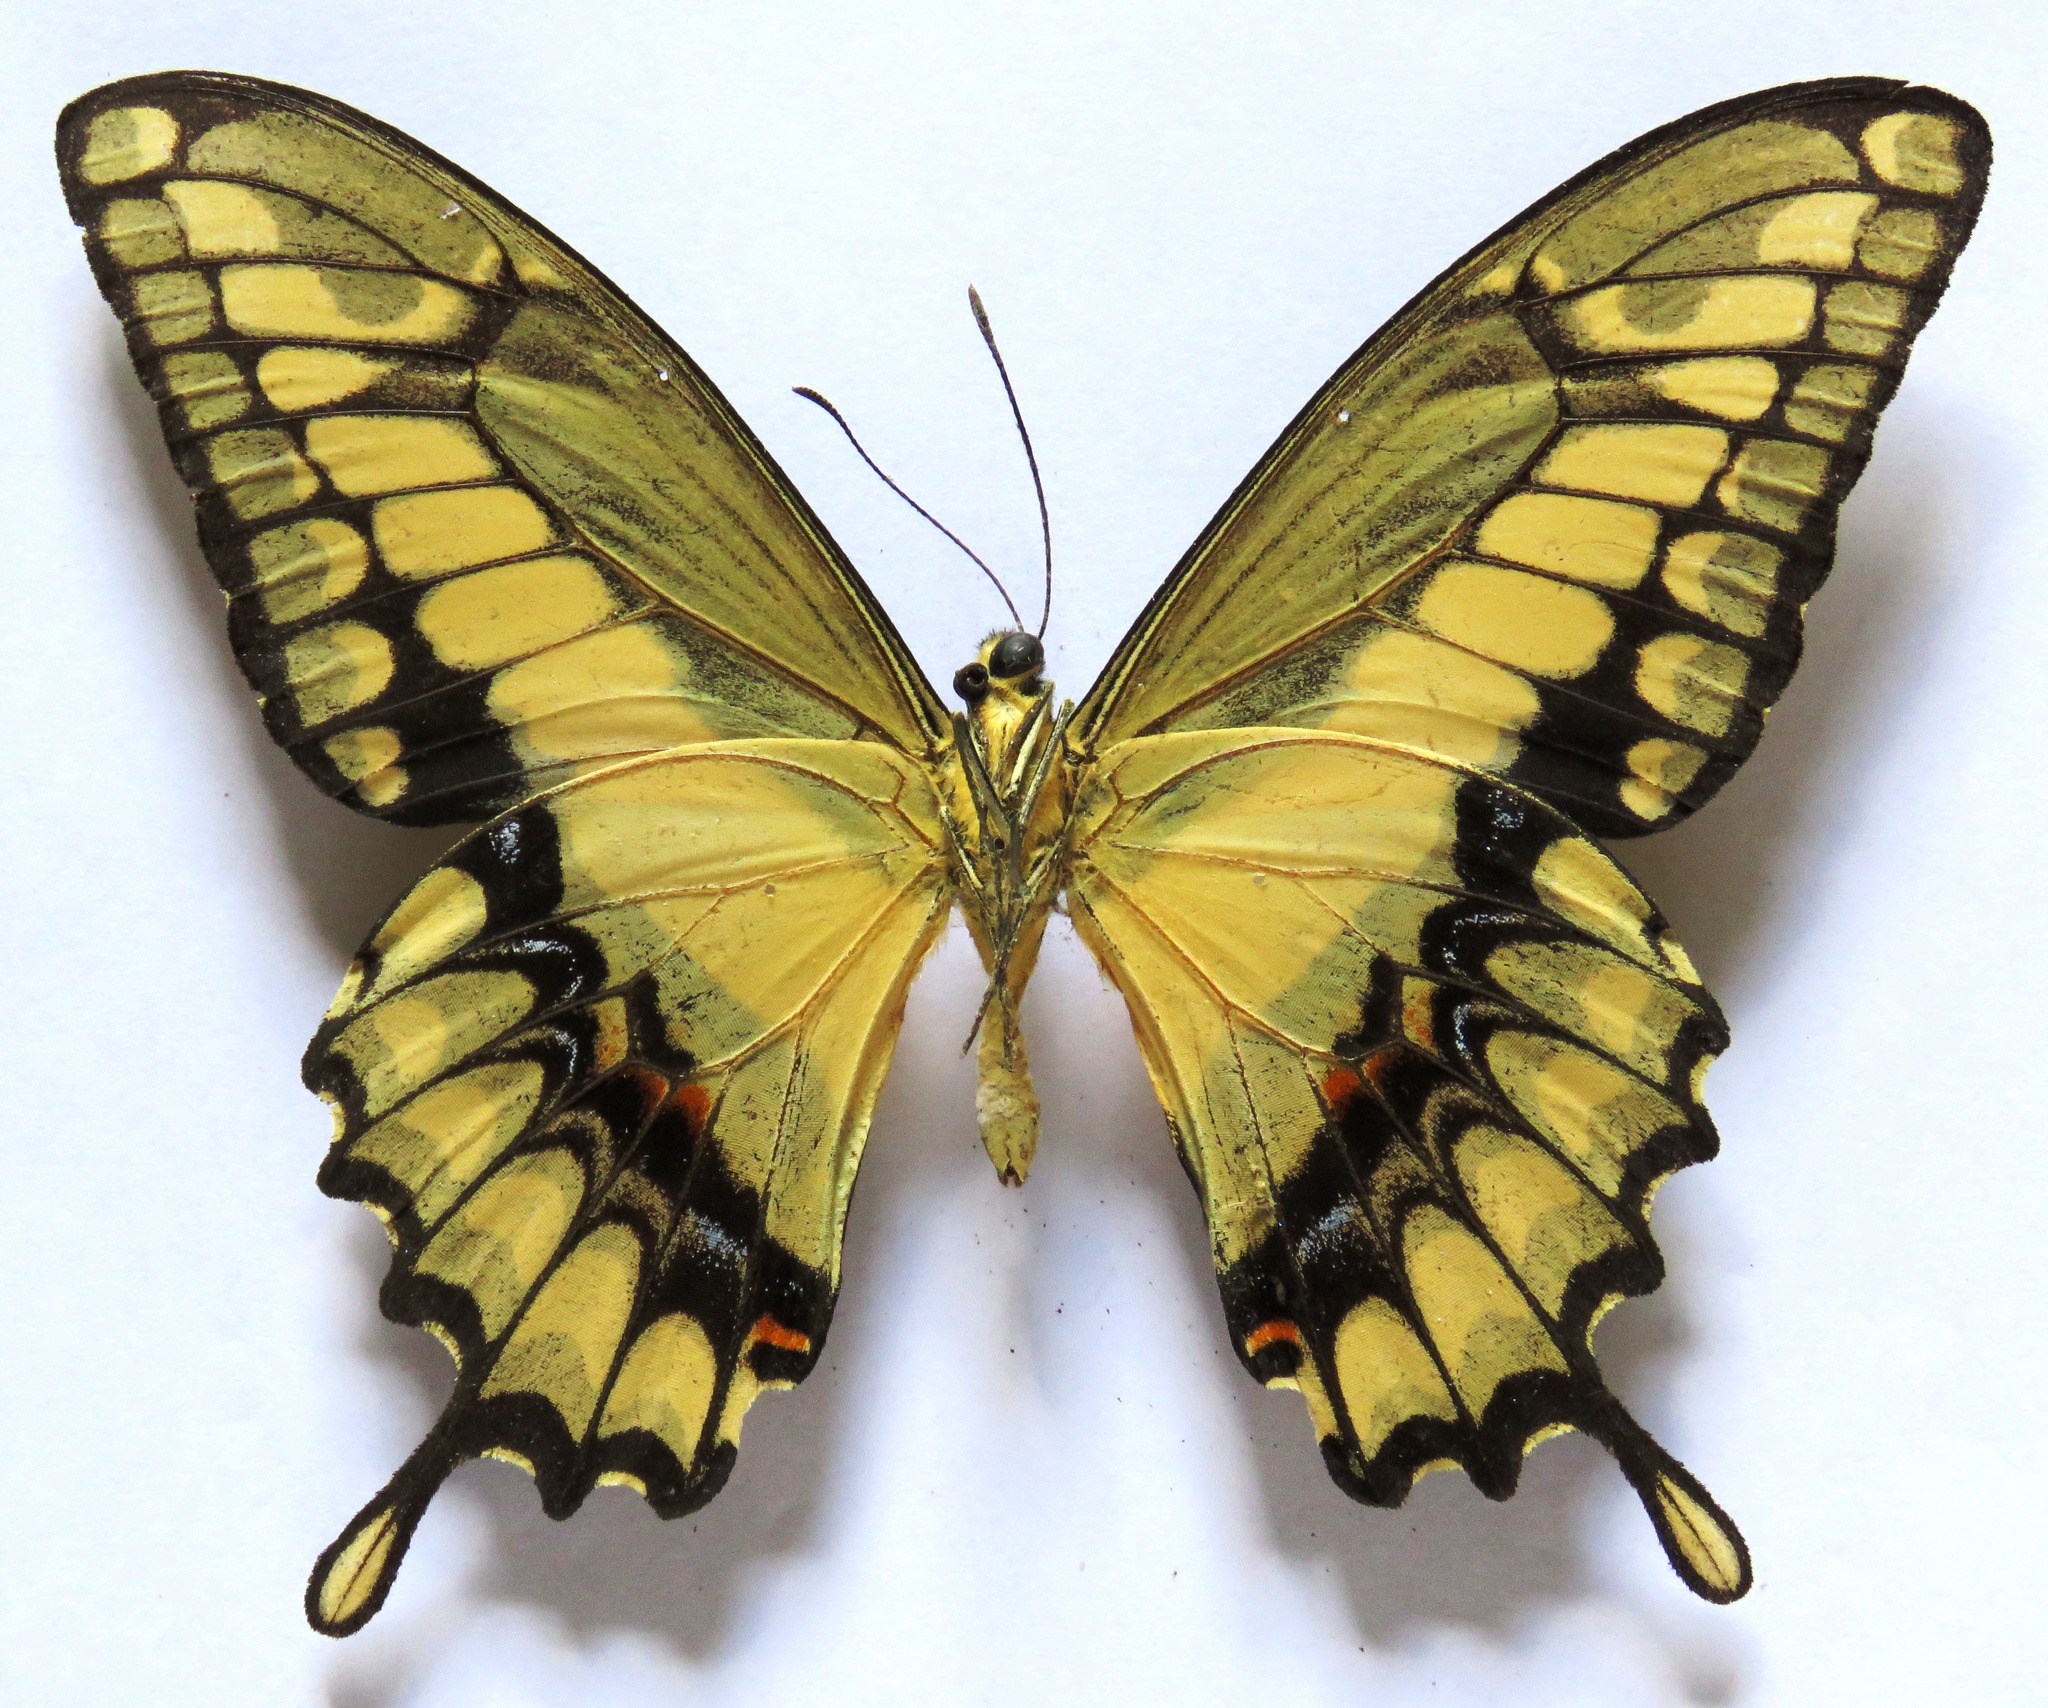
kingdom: Animalia
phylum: Arthropoda
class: Insecta
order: Lepidoptera
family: Papilionidae
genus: Papilio
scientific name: Papilio thoas
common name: King swallowtail
